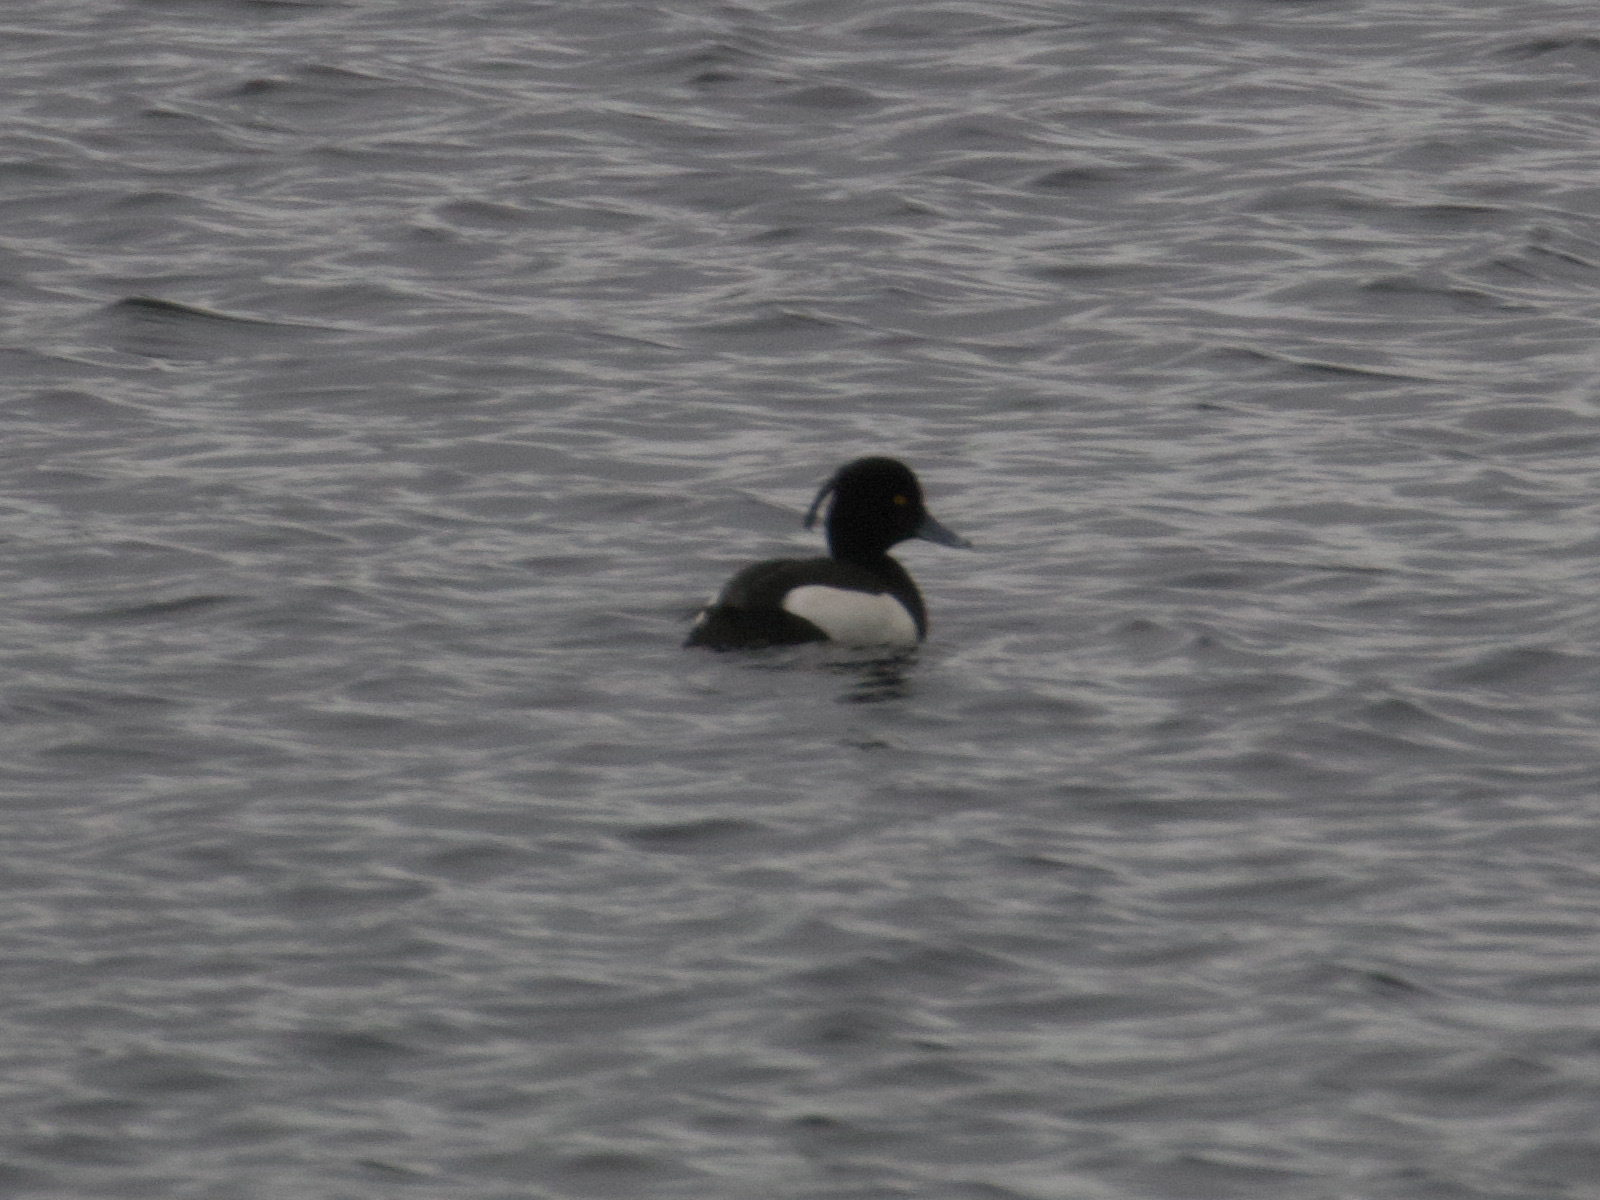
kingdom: Animalia
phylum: Chordata
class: Aves
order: Anseriformes
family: Anatidae
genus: Aythya
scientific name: Aythya fuligula
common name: Tufted duck
